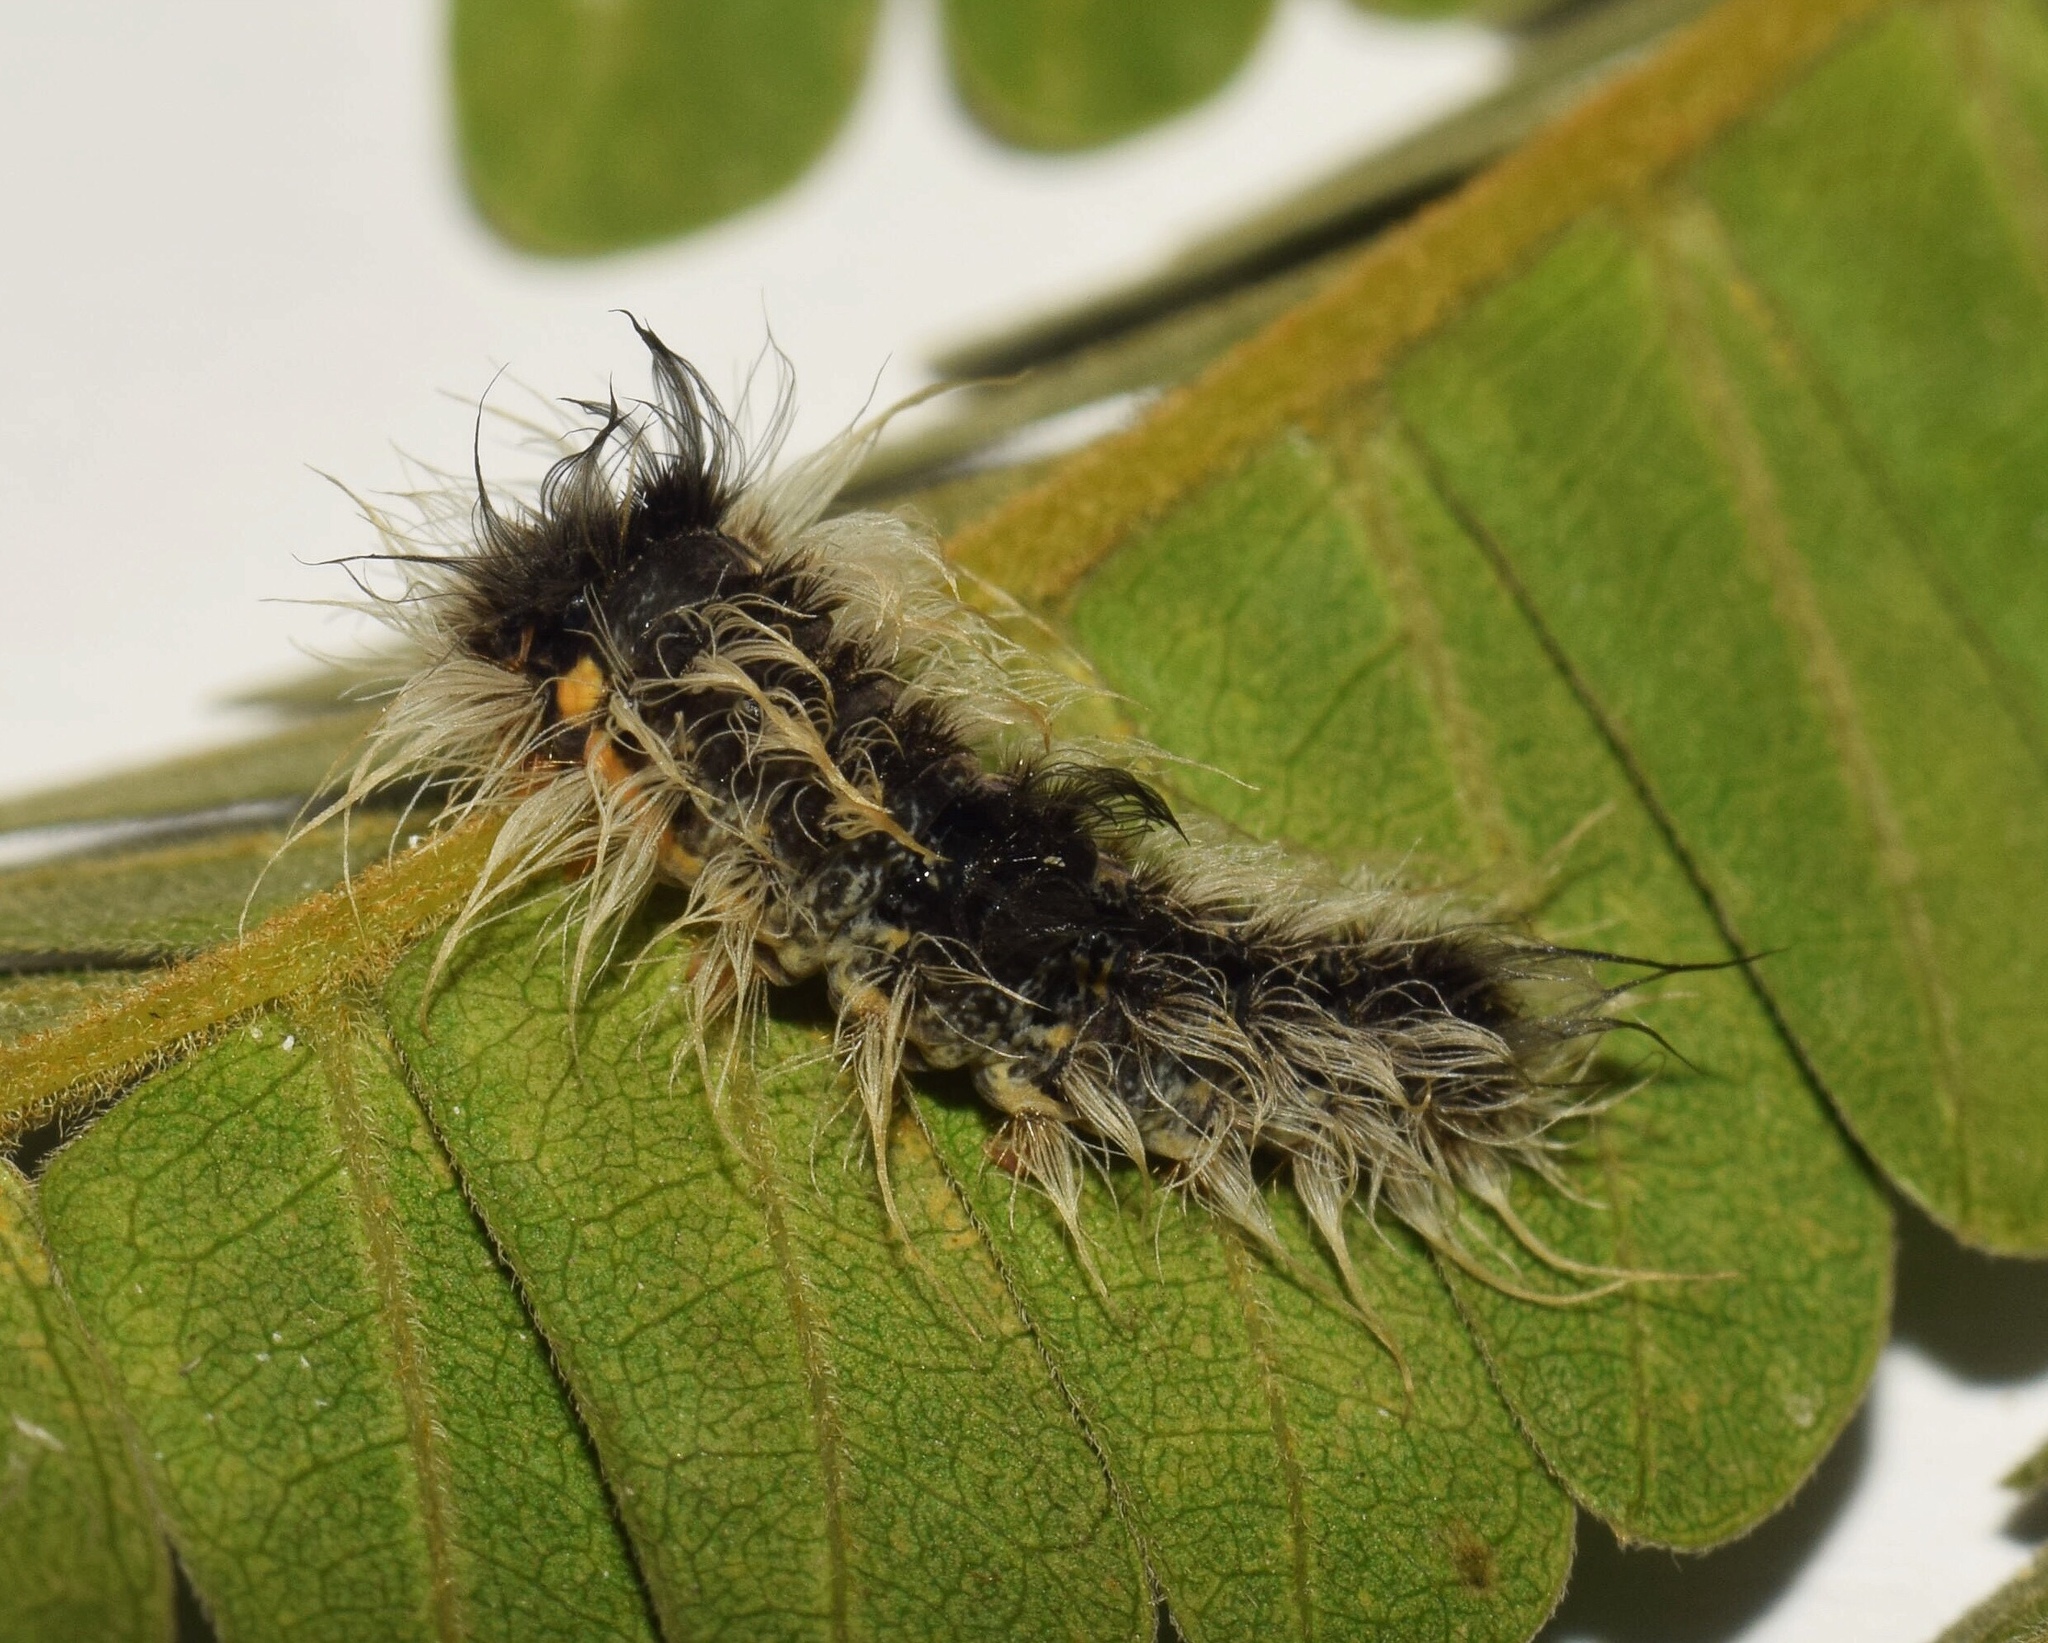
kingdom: Animalia
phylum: Arthropoda
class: Insecta
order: Lepidoptera
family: Erebidae
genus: Pseudocragia
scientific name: Pseudocragia quadrinotata
